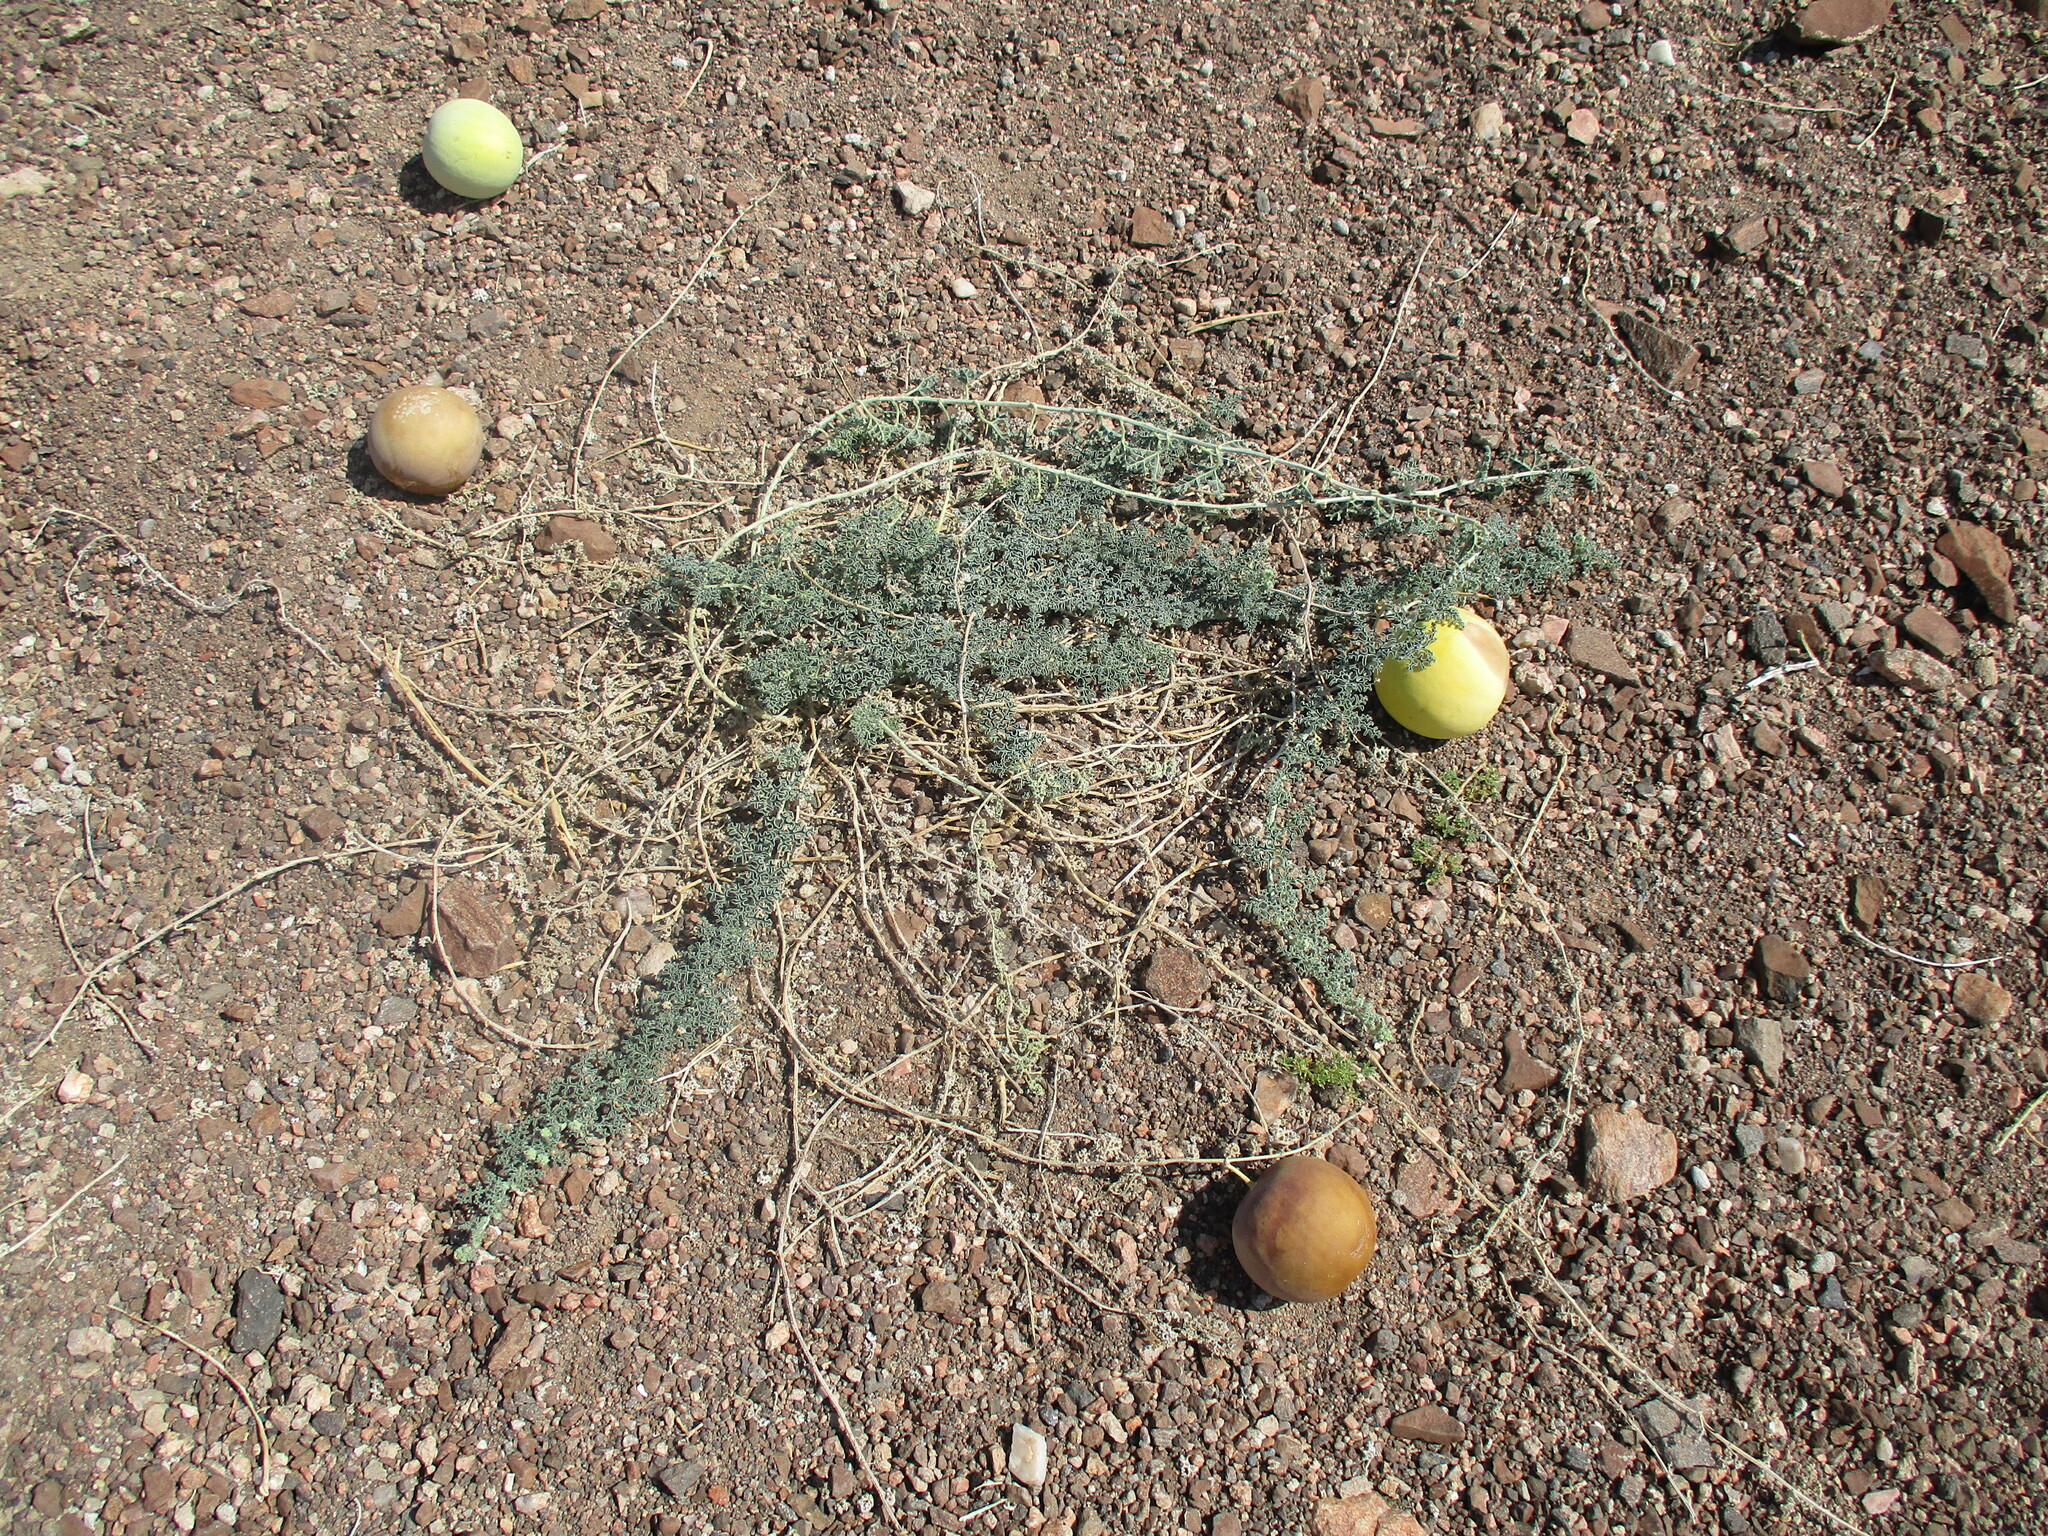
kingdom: Plantae
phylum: Tracheophyta
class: Magnoliopsida
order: Cucurbitales
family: Cucurbitaceae
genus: Citrullus
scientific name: Citrullus ecirrhosus
